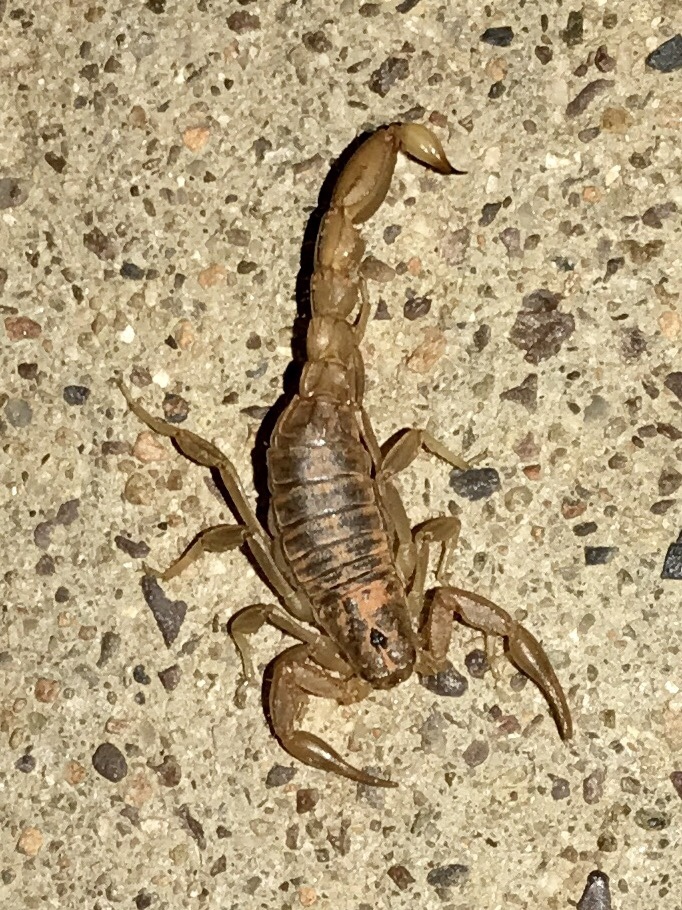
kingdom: Animalia
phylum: Arthropoda
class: Arachnida
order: Scorpiones
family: Vaejovidae
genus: Paravaejovis
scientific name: Paravaejovis spinigerus
